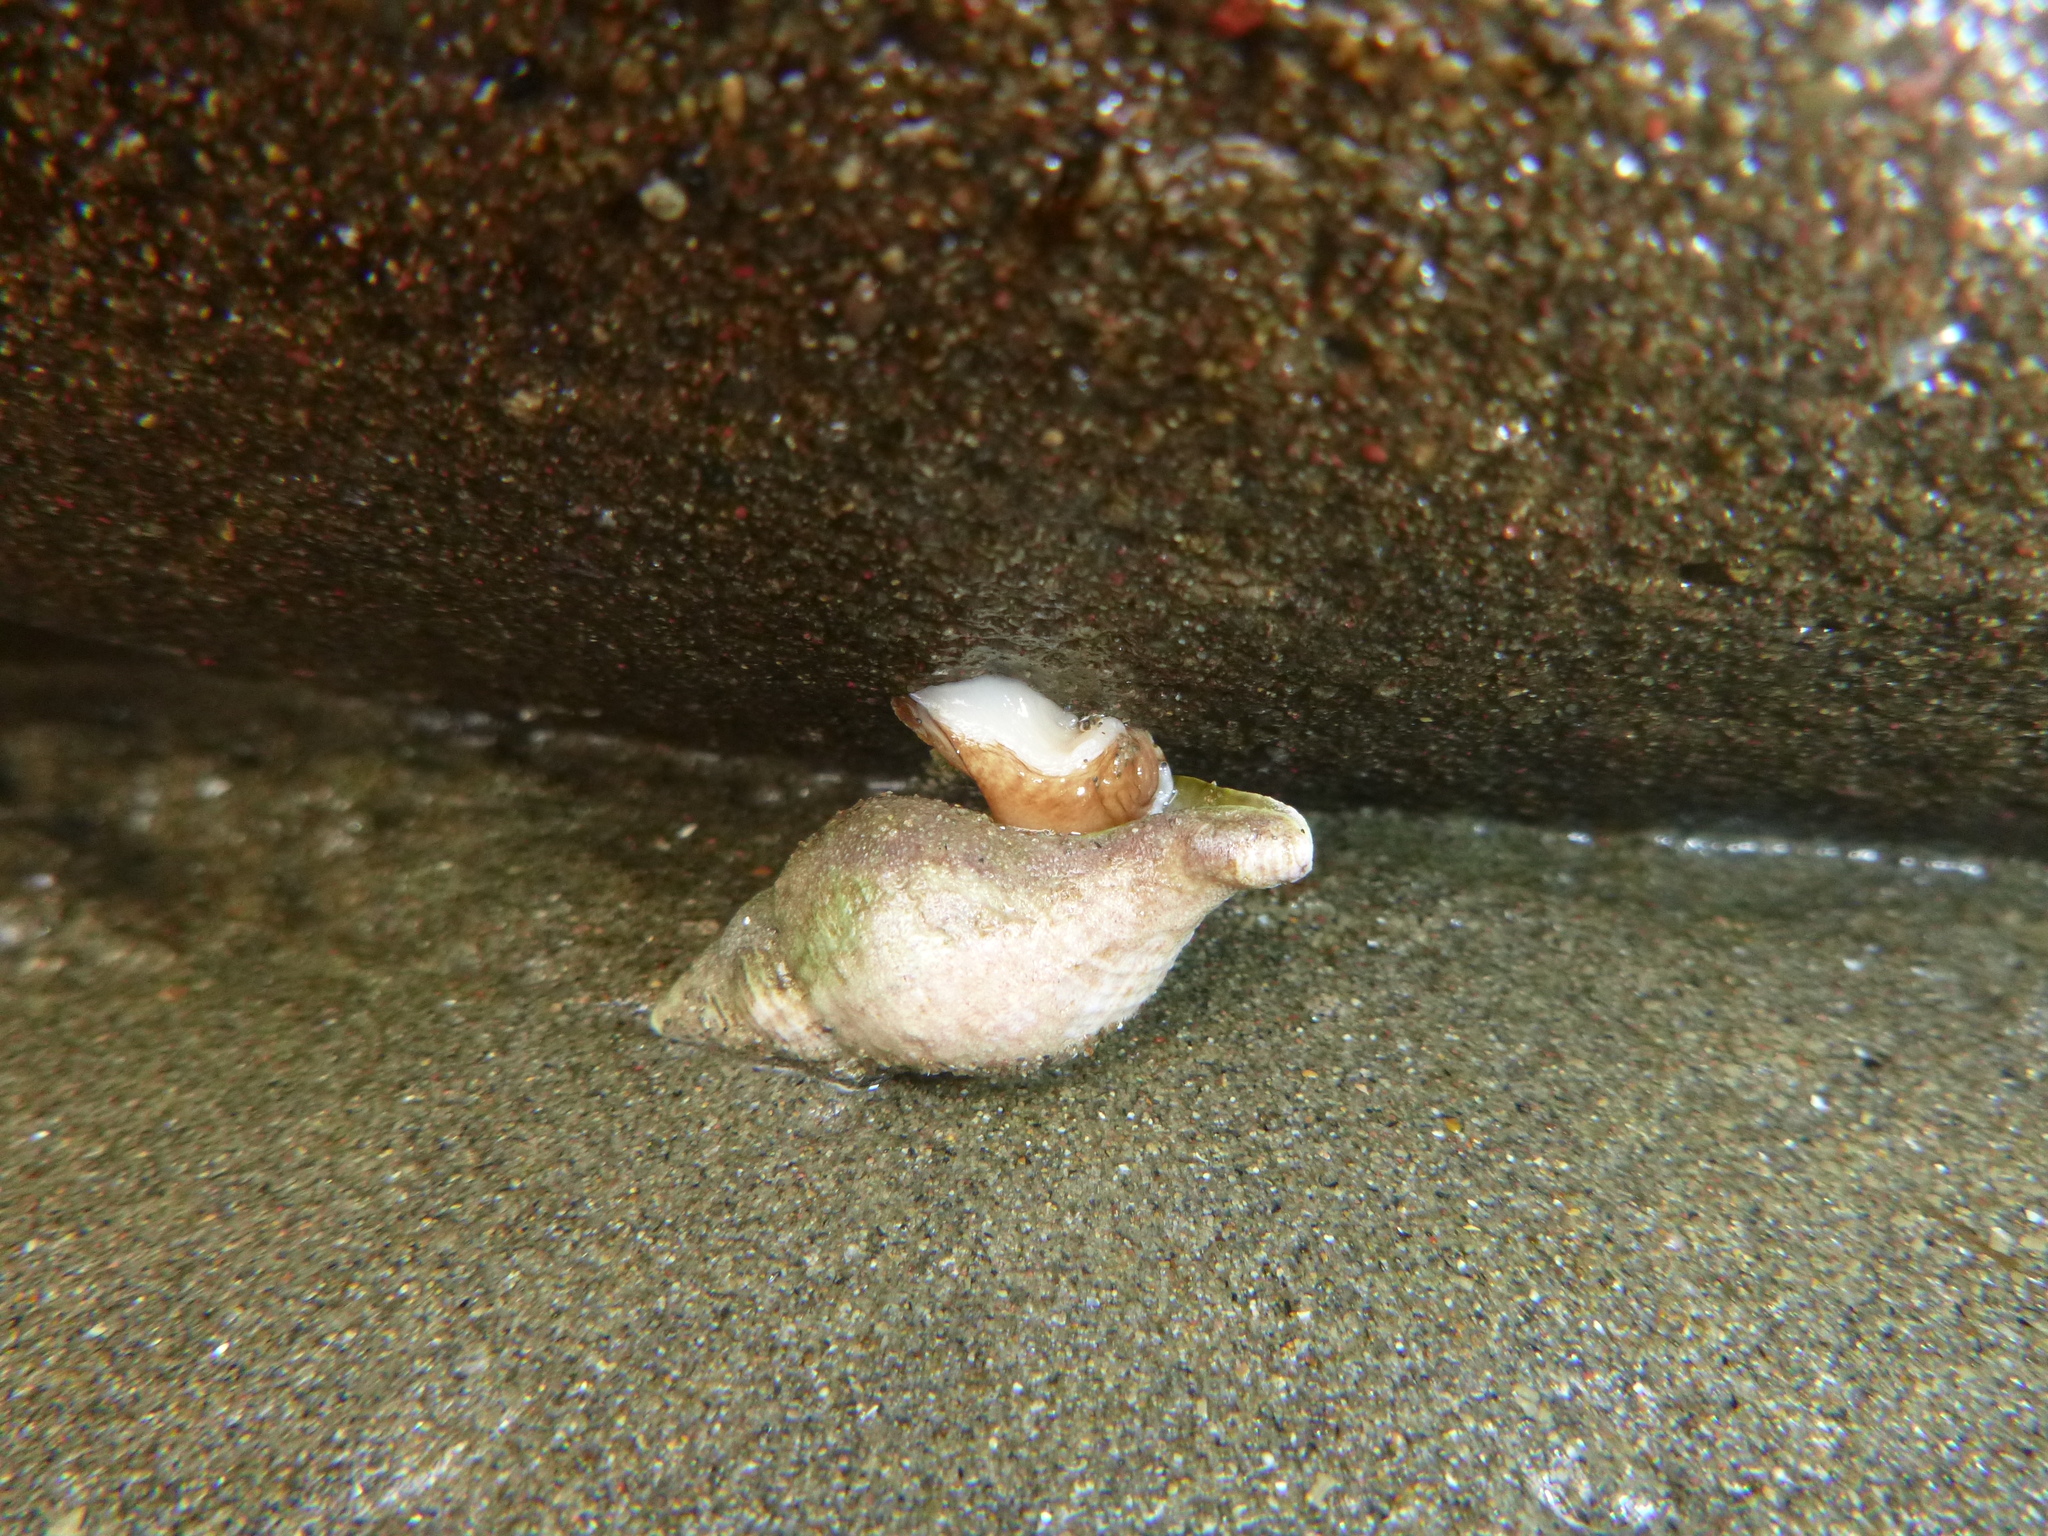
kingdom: Animalia
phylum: Mollusca
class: Gastropoda
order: Neogastropoda
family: Tudiclidae
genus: Buccinulum
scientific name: Buccinulum linea
